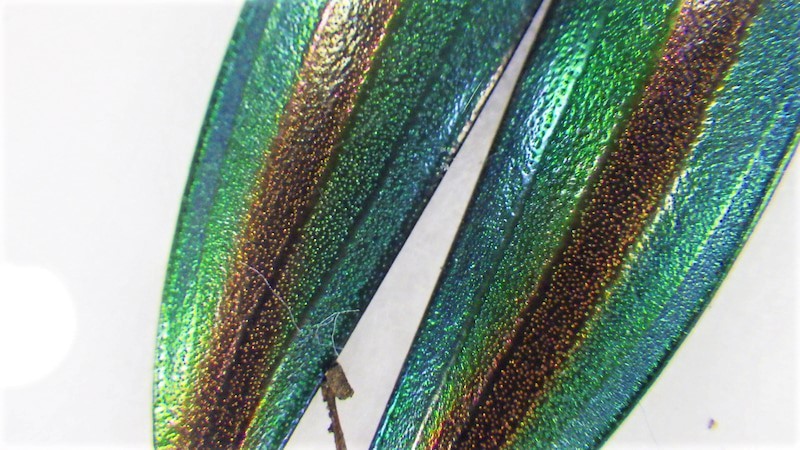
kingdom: Animalia
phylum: Arthropoda
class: Insecta
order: Coleoptera
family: Buprestidae
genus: Chrysochroa
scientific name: Chrysochroa fulgidissima
